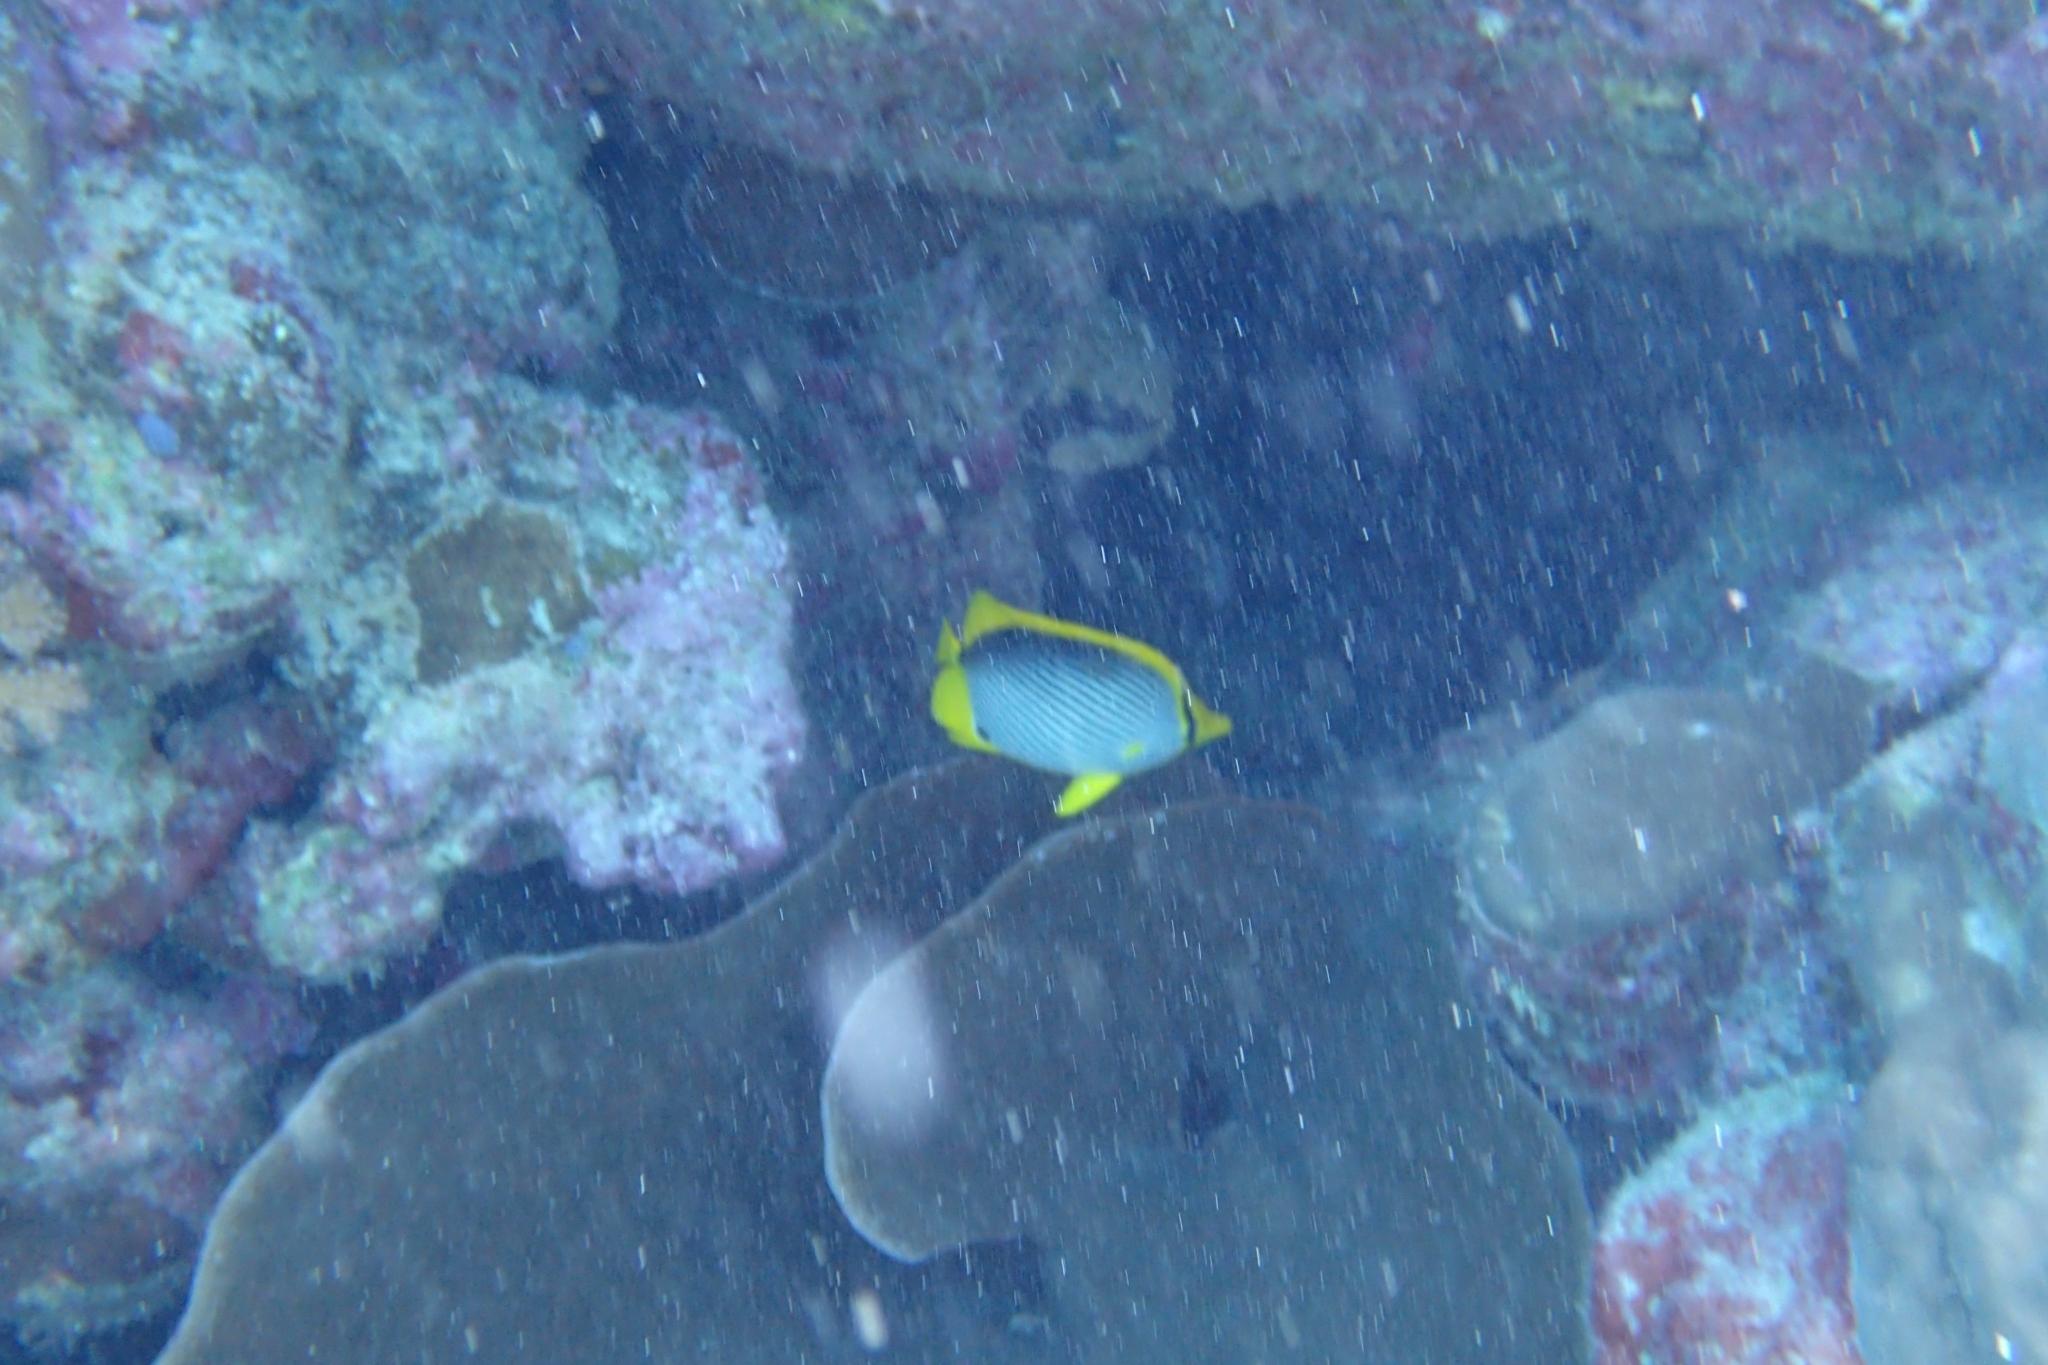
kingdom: Animalia
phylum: Chordata
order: Perciformes
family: Chaetodontidae
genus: Chaetodon
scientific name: Chaetodon melannotus
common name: Blackback butterflyfish
